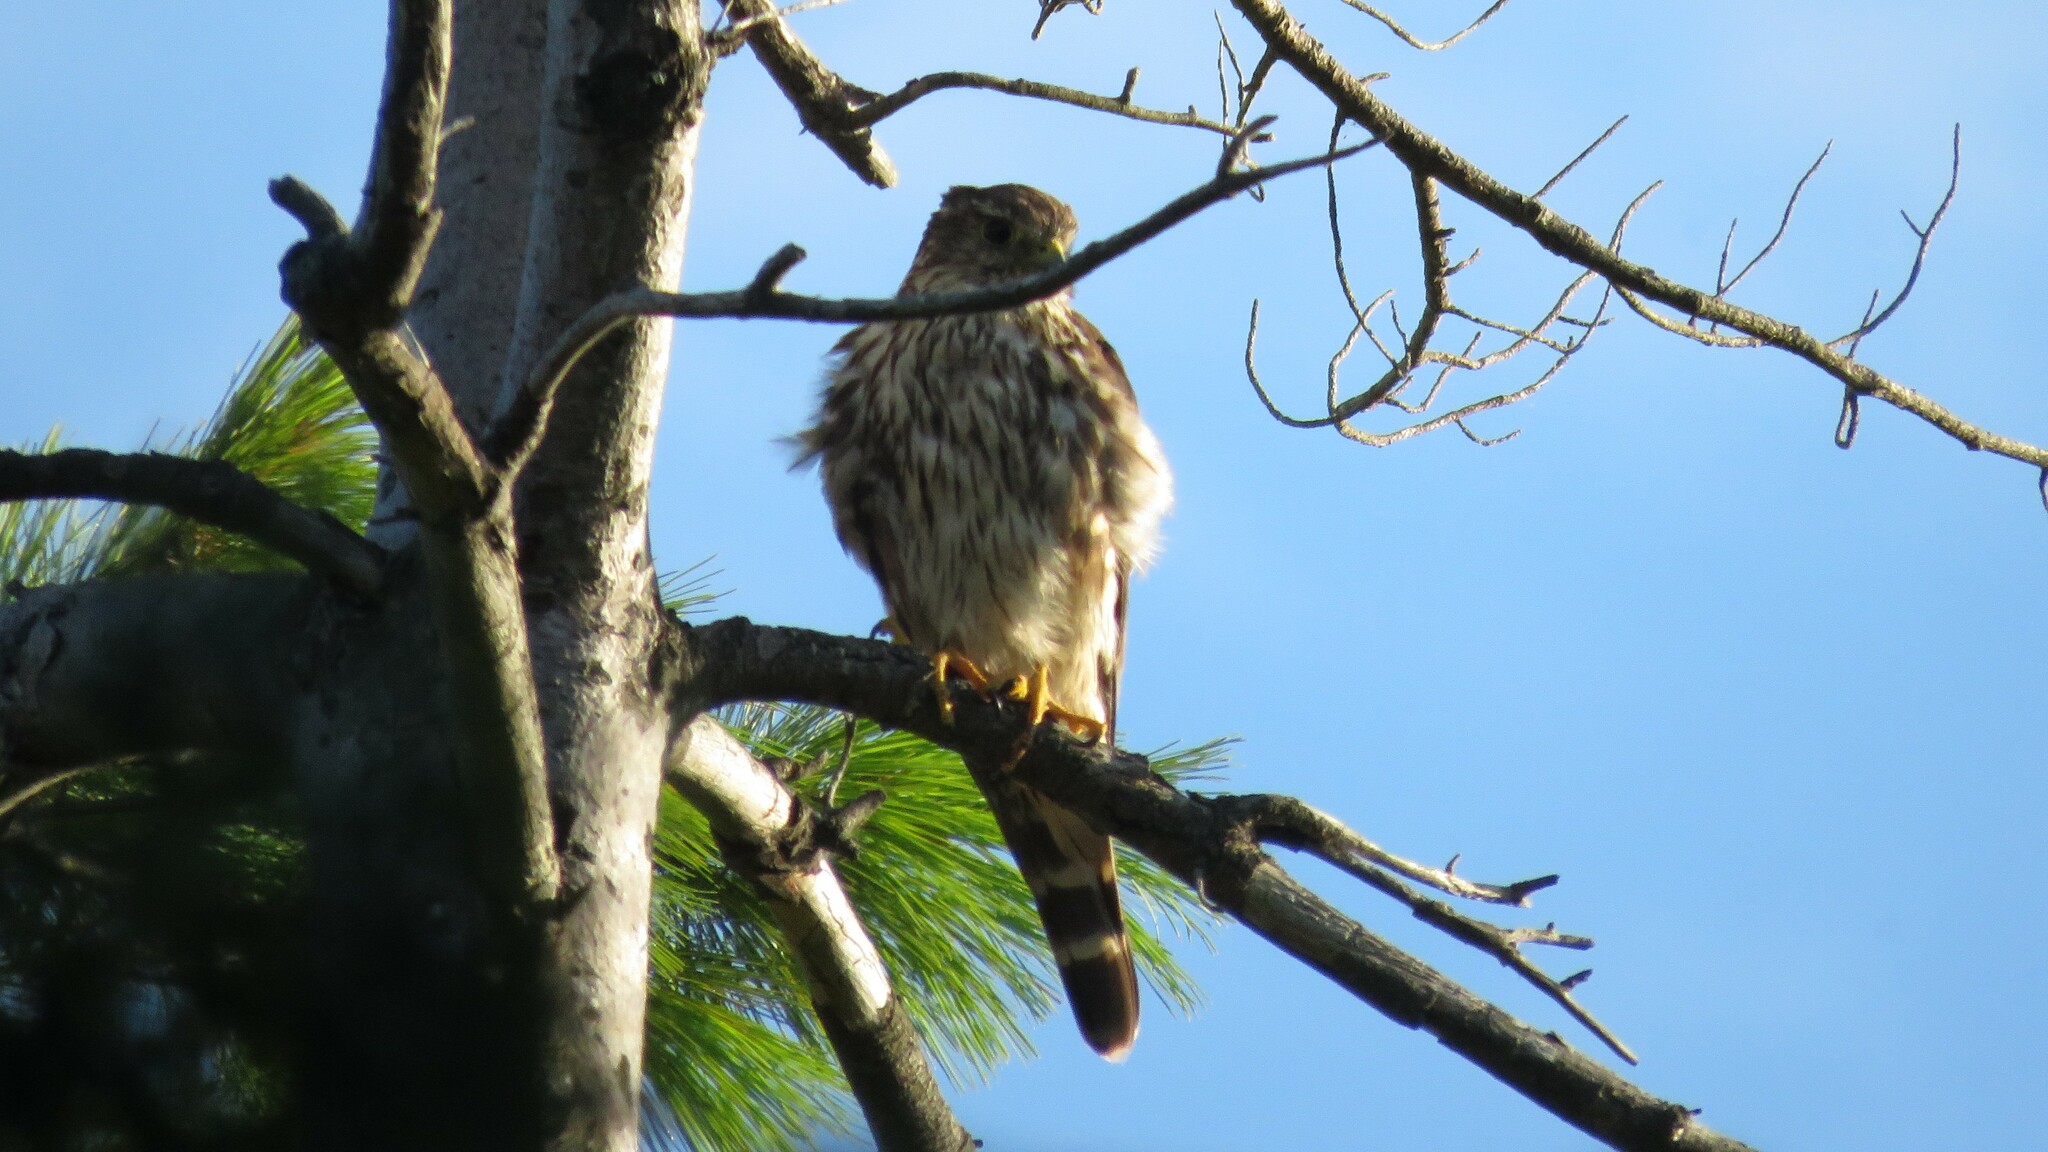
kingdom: Animalia
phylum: Chordata
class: Aves
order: Falconiformes
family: Falconidae
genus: Falco
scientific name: Falco columbarius
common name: Merlin
